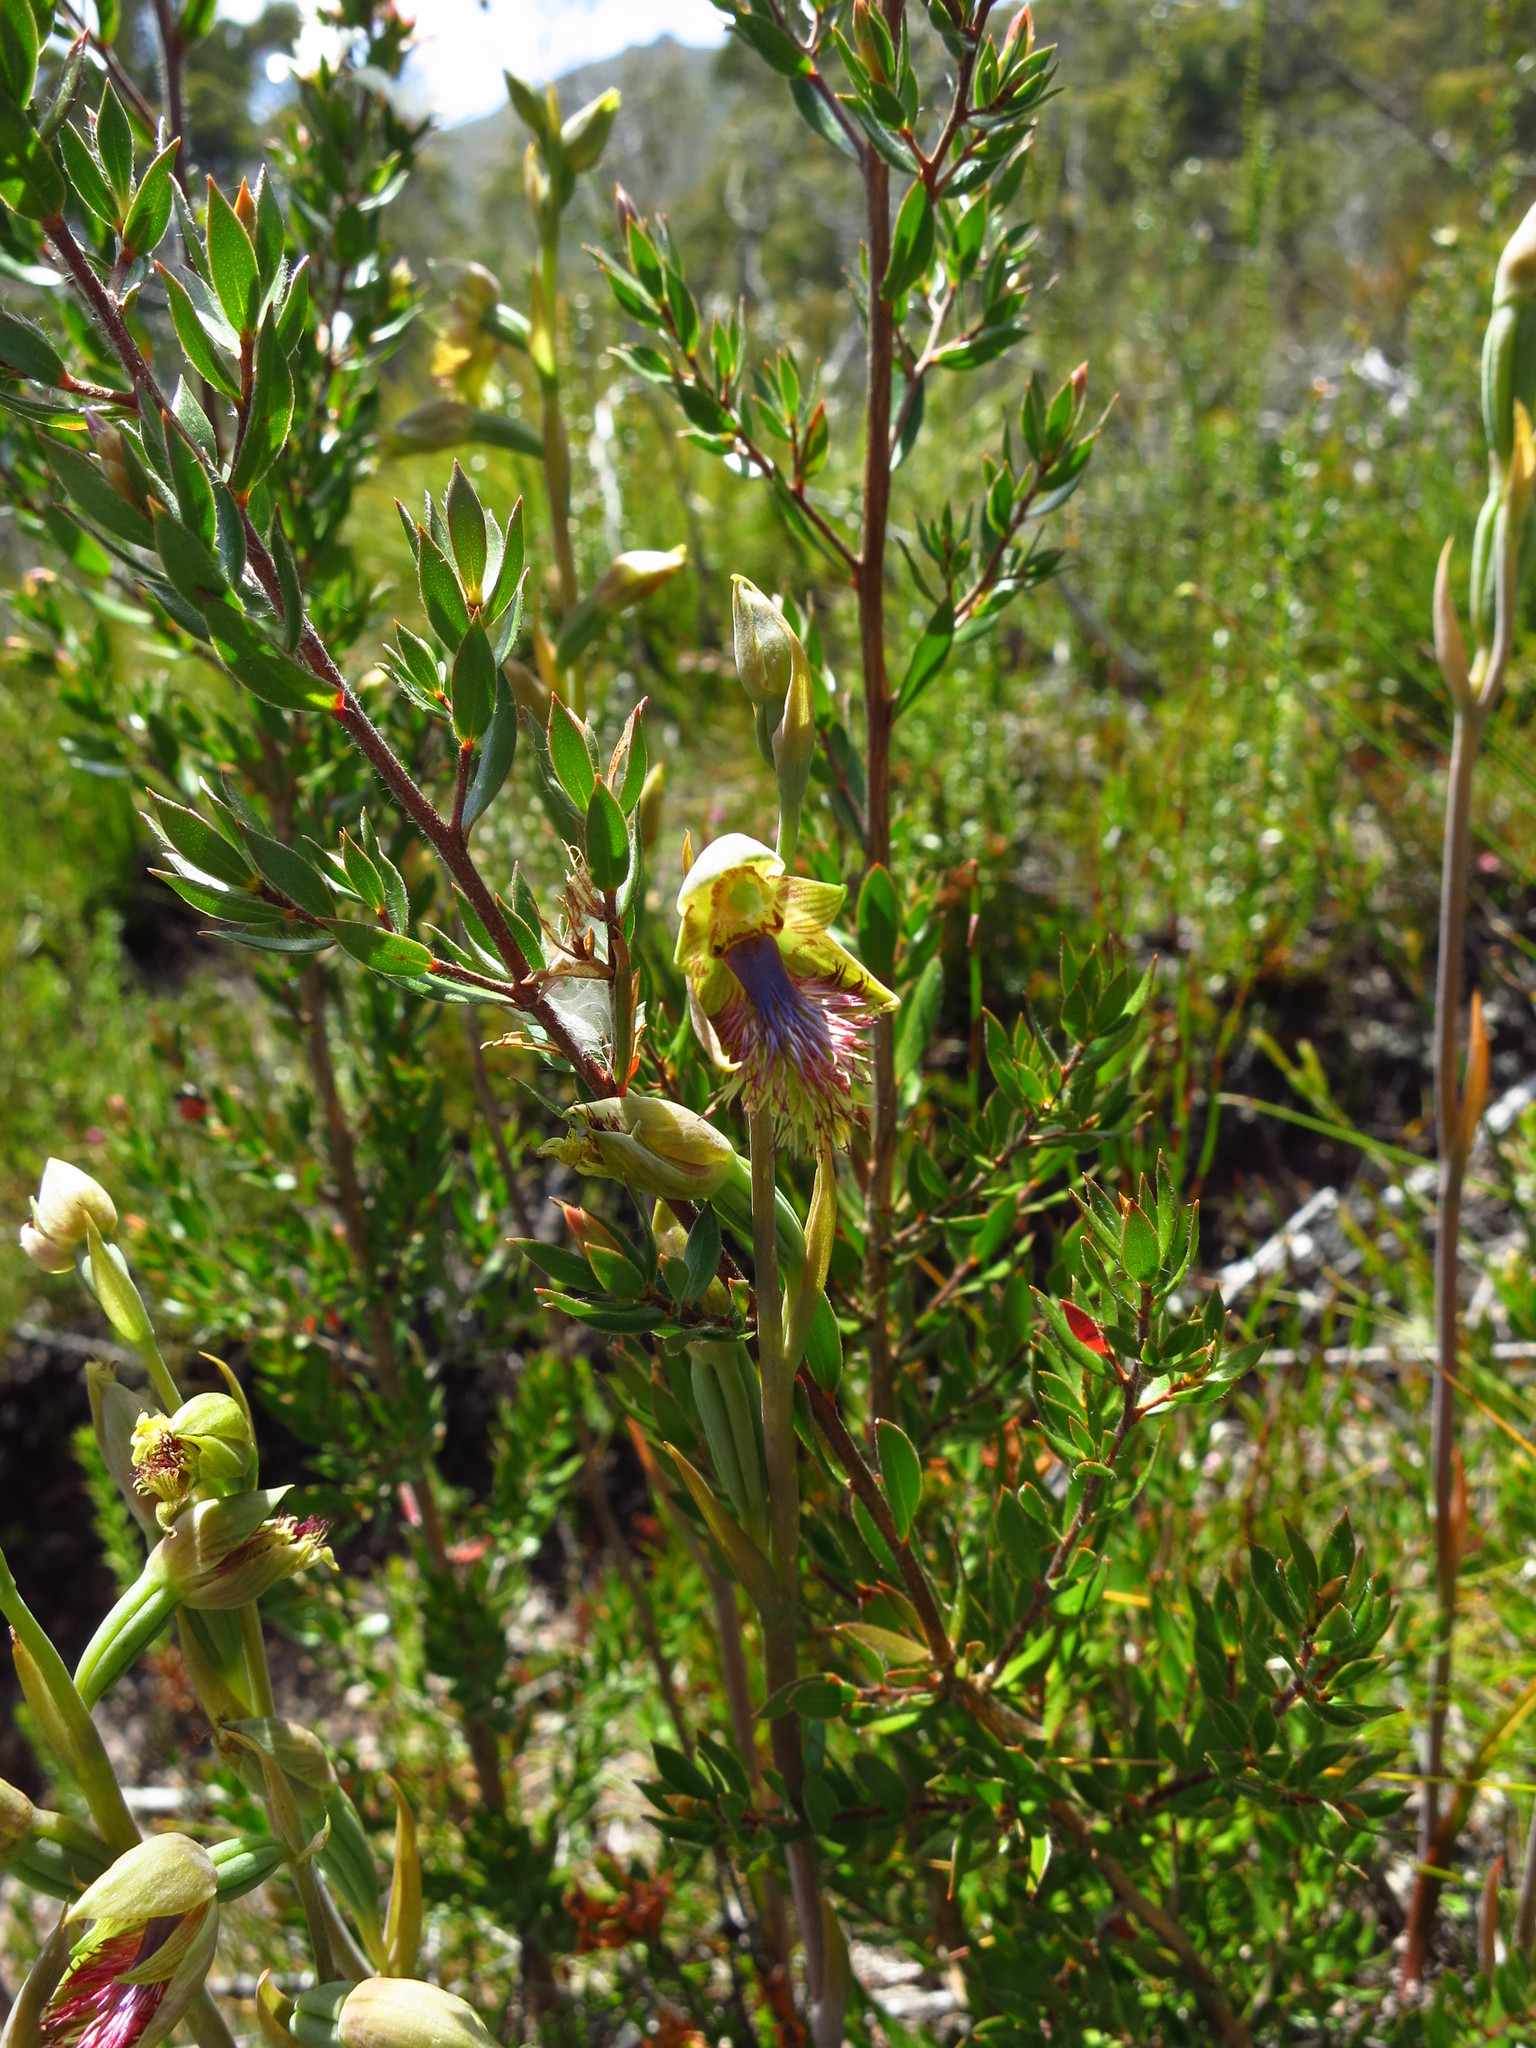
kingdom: Plantae
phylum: Tracheophyta
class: Liliopsida
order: Asparagales
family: Orchidaceae
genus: Calochilus
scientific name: Calochilus herbaceus
